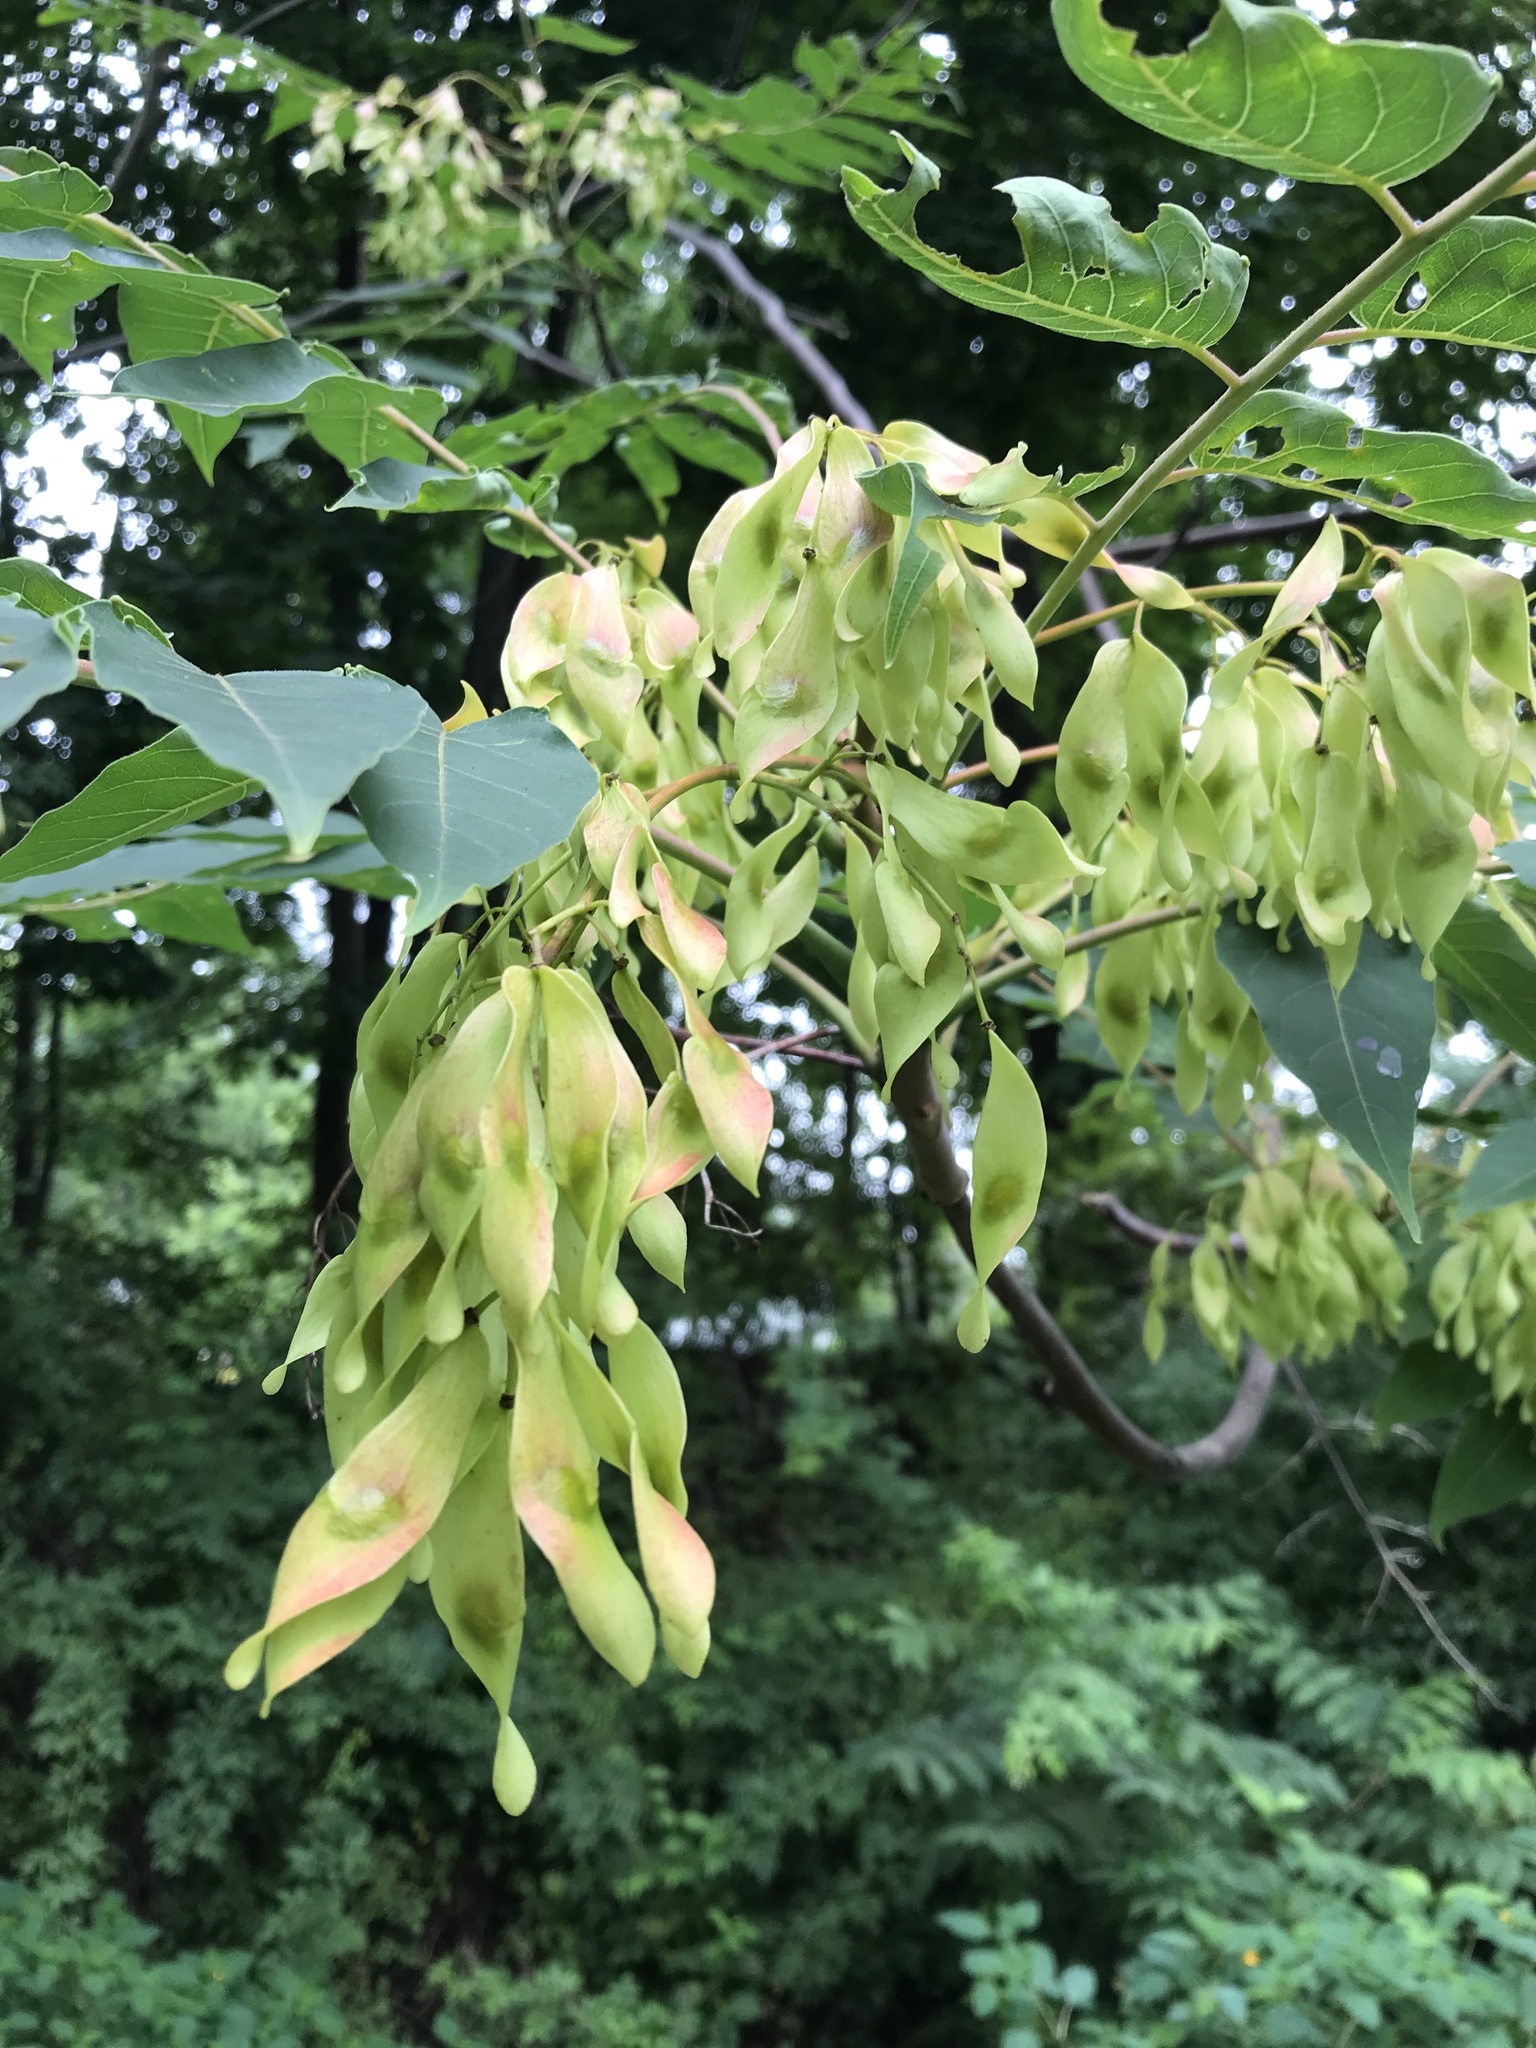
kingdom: Plantae
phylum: Tracheophyta
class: Magnoliopsida
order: Sapindales
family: Simaroubaceae
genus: Ailanthus
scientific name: Ailanthus altissima
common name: Tree-of-heaven
